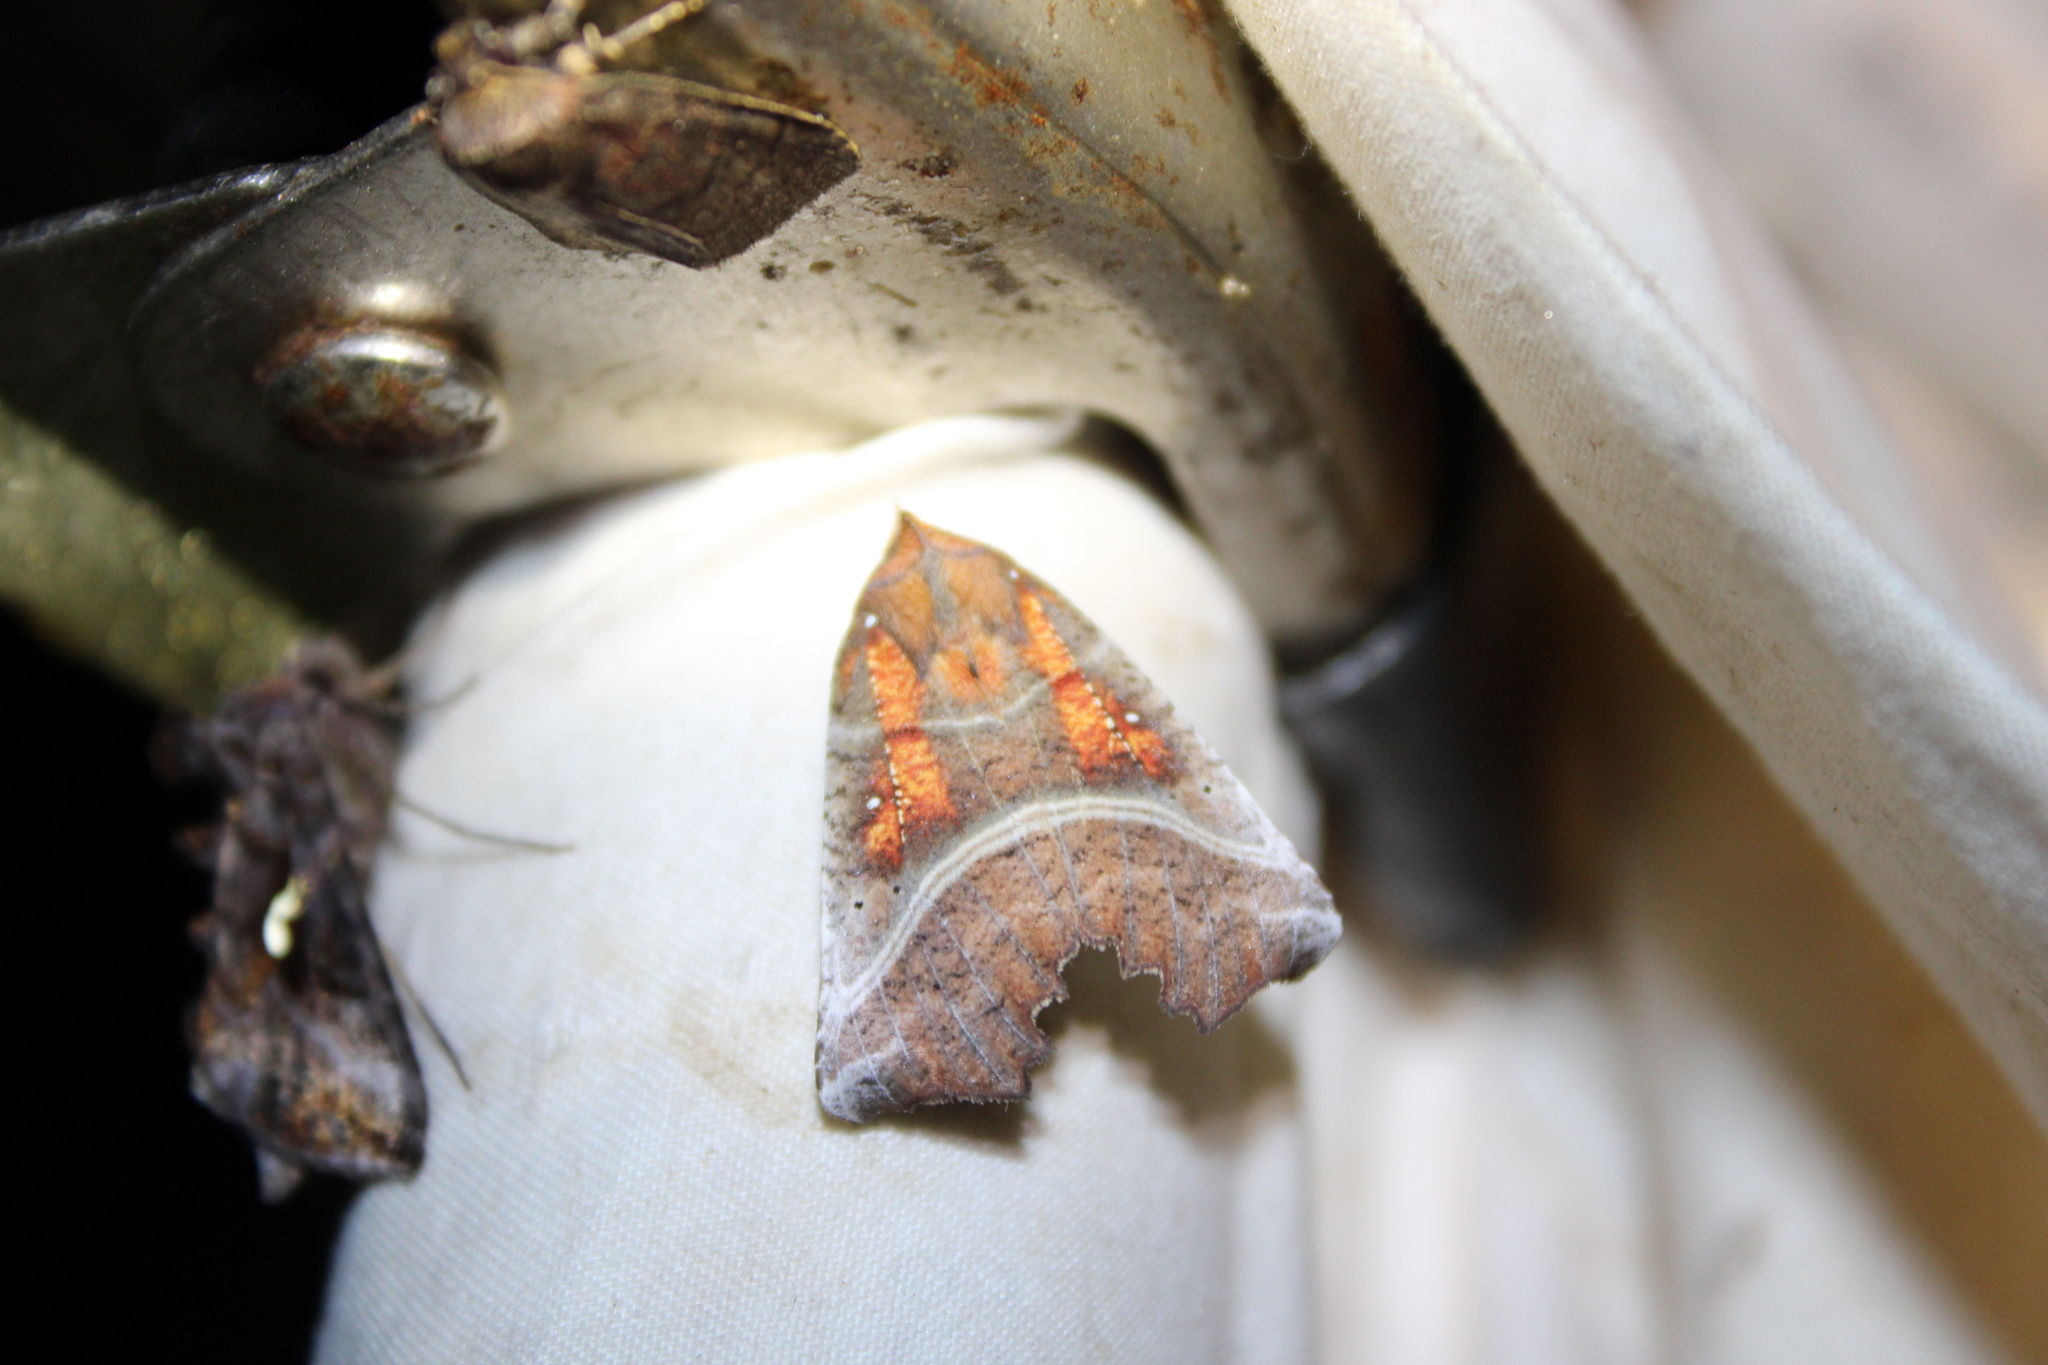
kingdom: Animalia
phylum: Arthropoda
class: Insecta
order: Lepidoptera
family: Erebidae
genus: Scoliopteryx
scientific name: Scoliopteryx libatrix
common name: Herald
